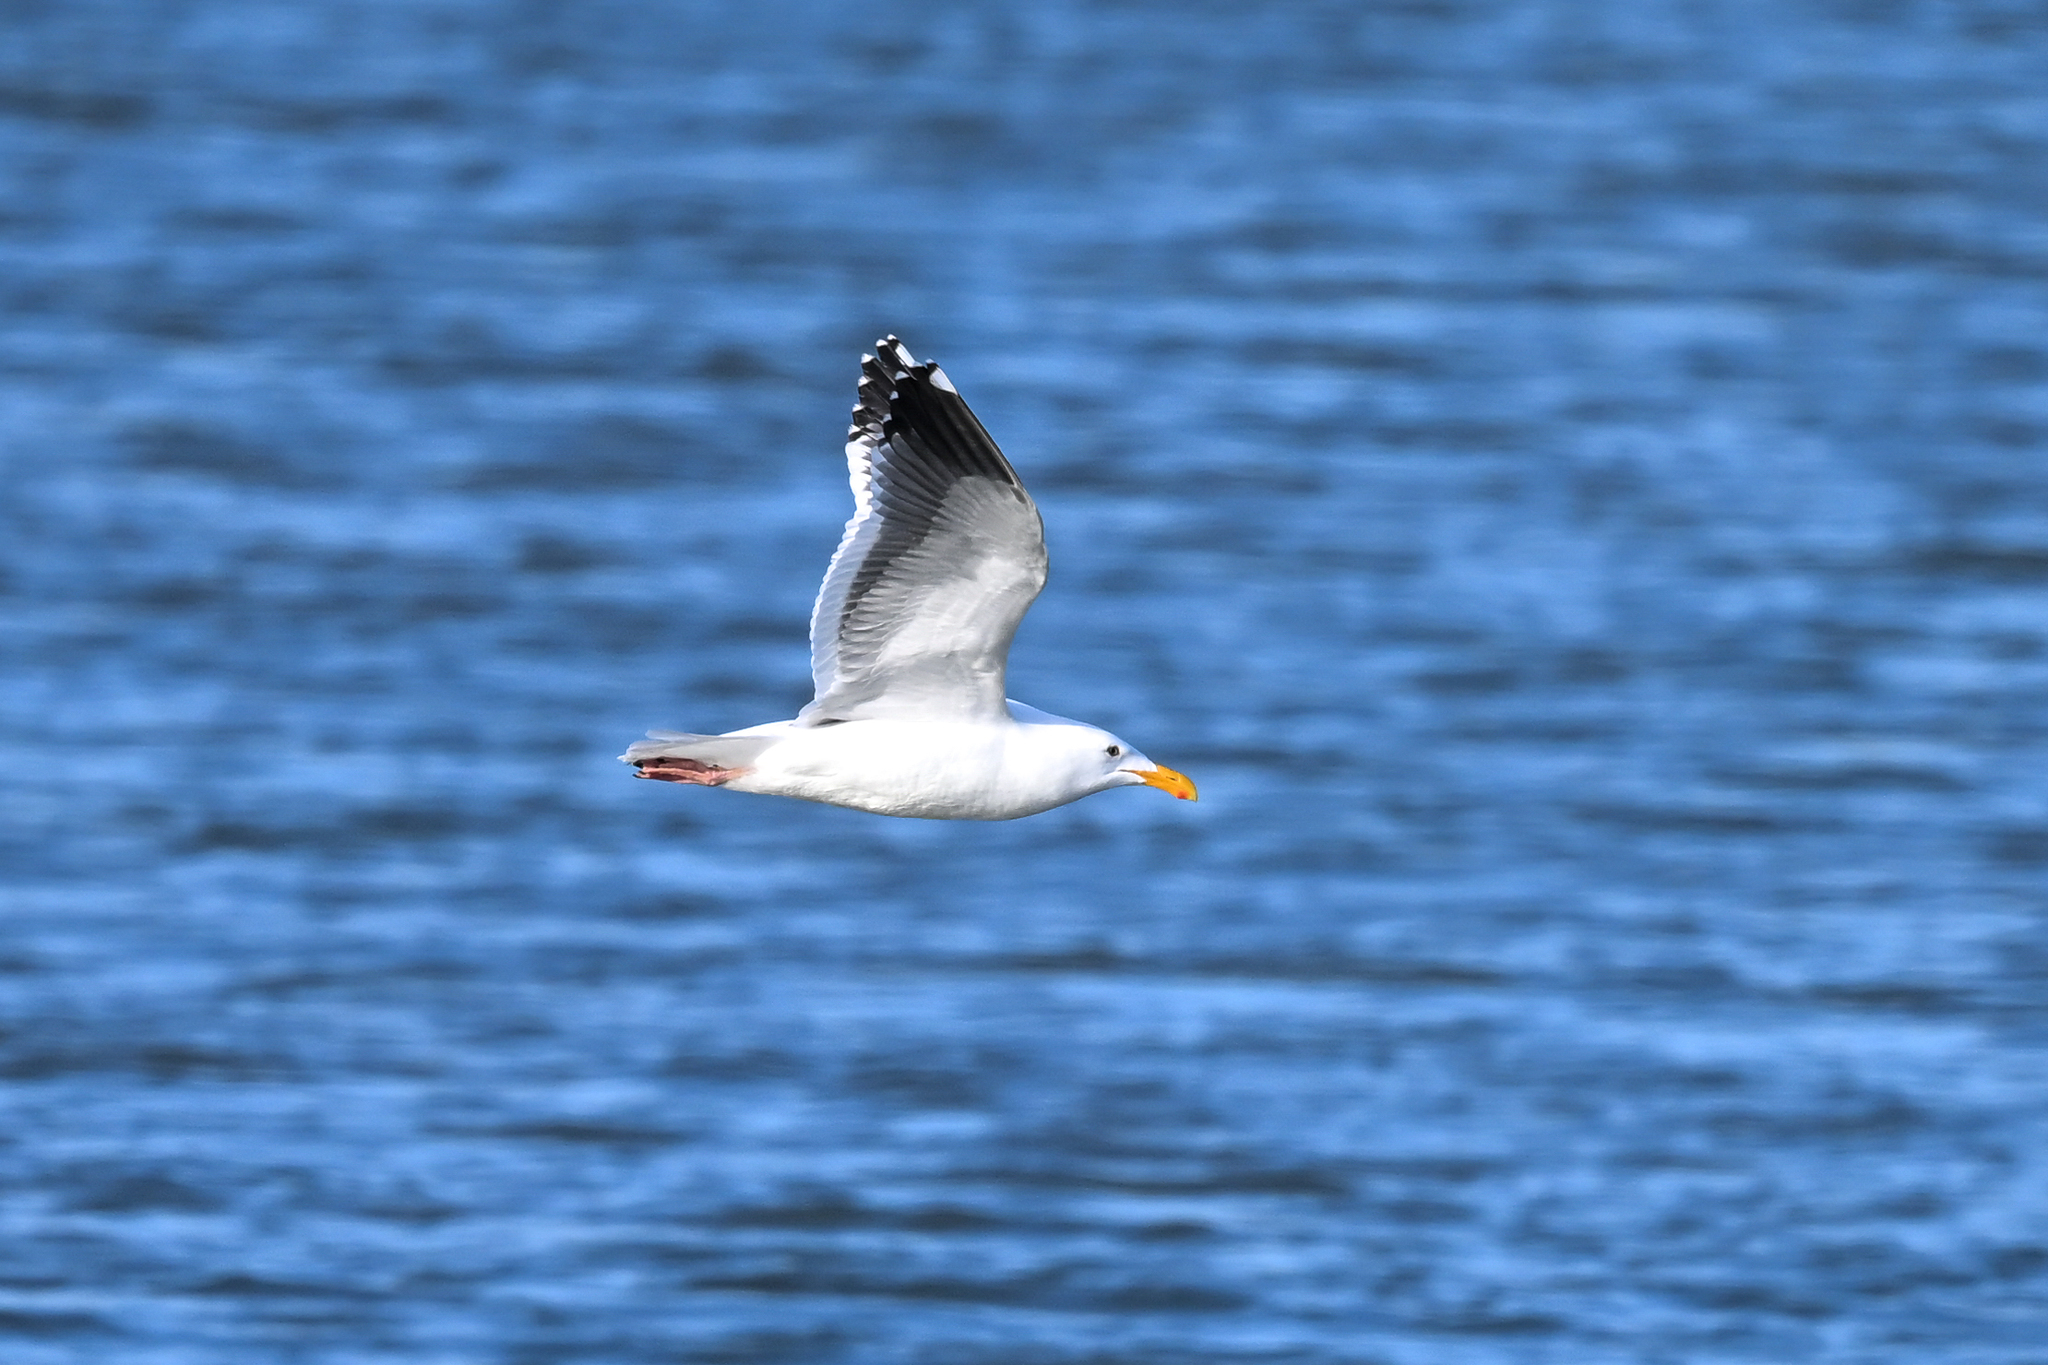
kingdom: Animalia
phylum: Chordata
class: Aves
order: Charadriiformes
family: Laridae
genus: Larus
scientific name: Larus occidentalis
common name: Western gull
